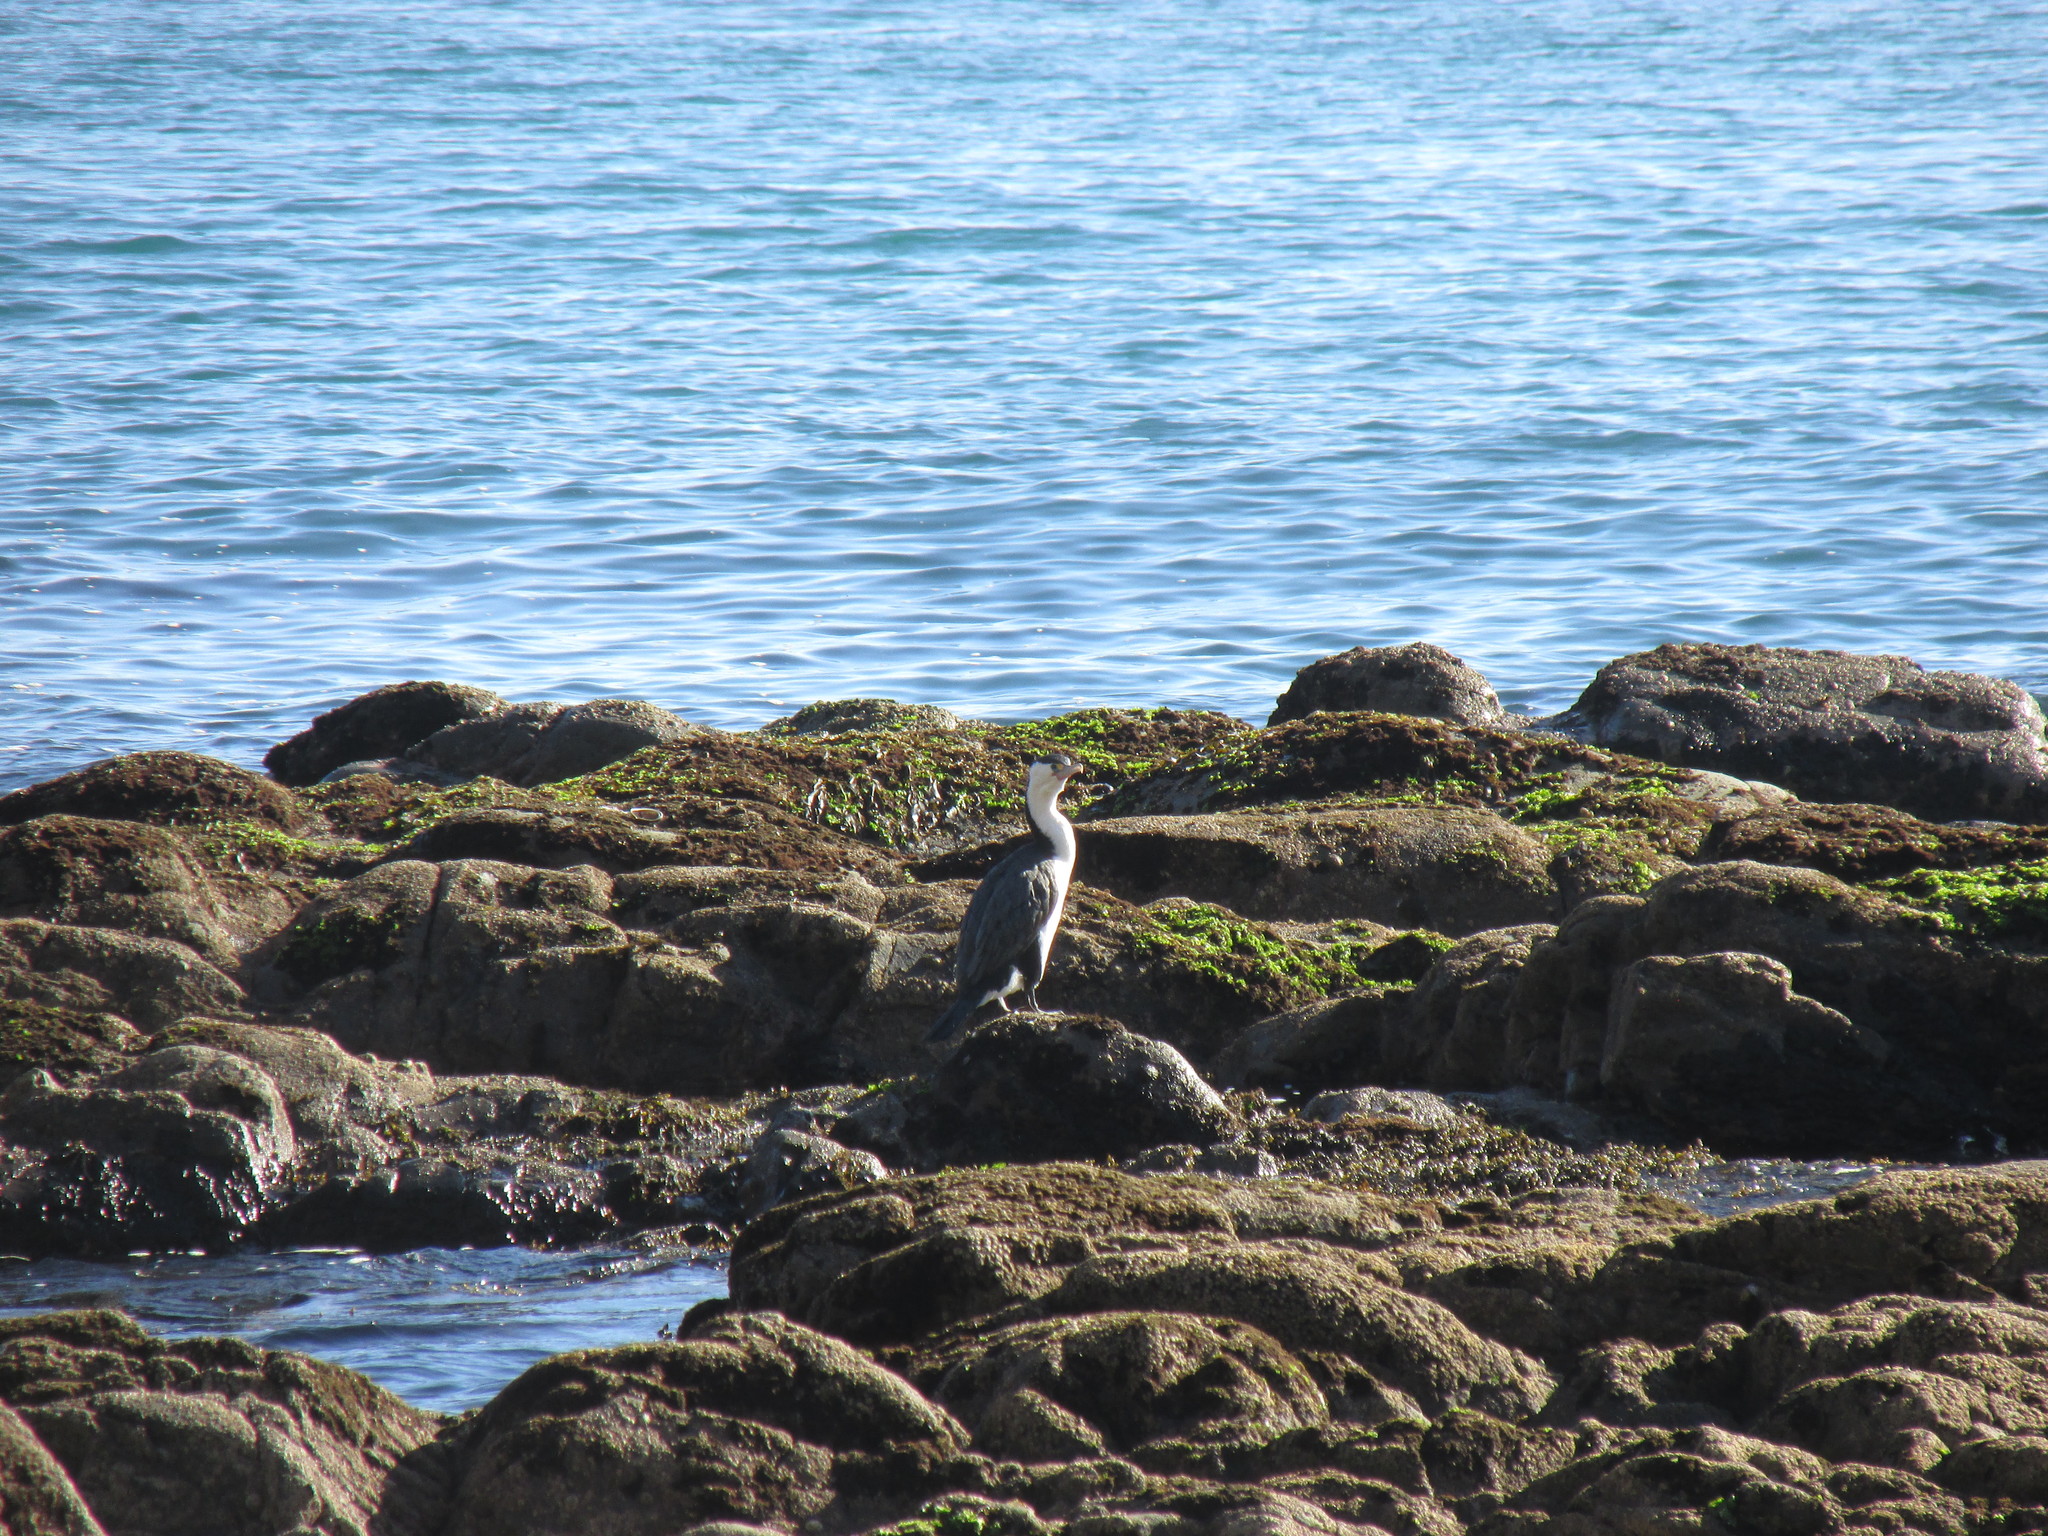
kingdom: Animalia
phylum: Chordata
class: Aves
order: Suliformes
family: Phalacrocoracidae
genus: Phalacrocorax
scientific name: Phalacrocorax varius
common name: Pied cormorant
